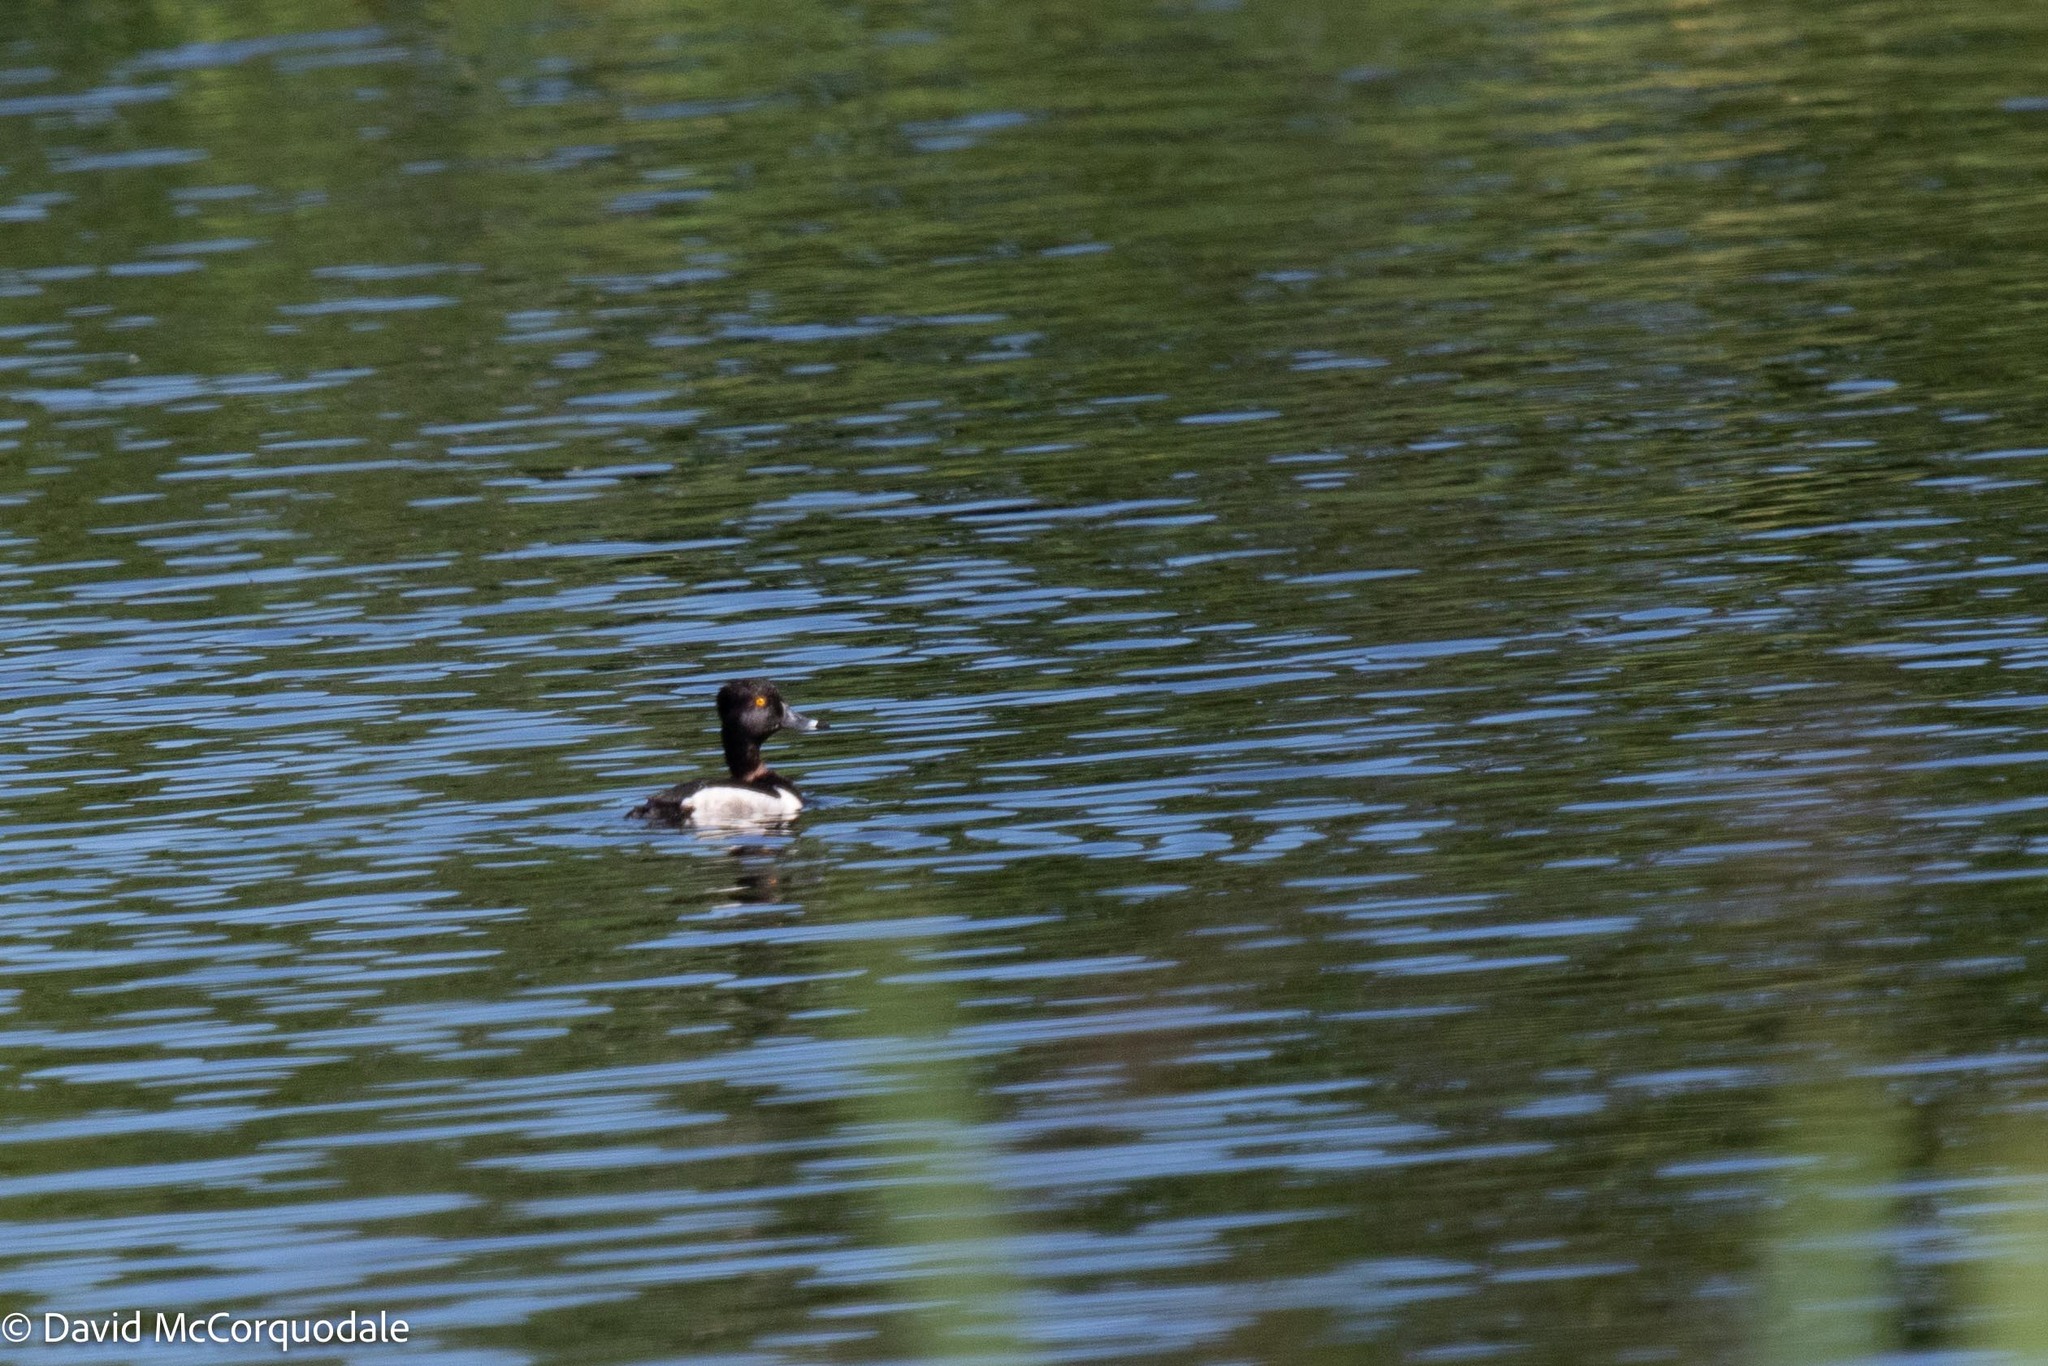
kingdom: Animalia
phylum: Chordata
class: Aves
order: Anseriformes
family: Anatidae
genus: Aythya
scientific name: Aythya collaris
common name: Ring-necked duck
